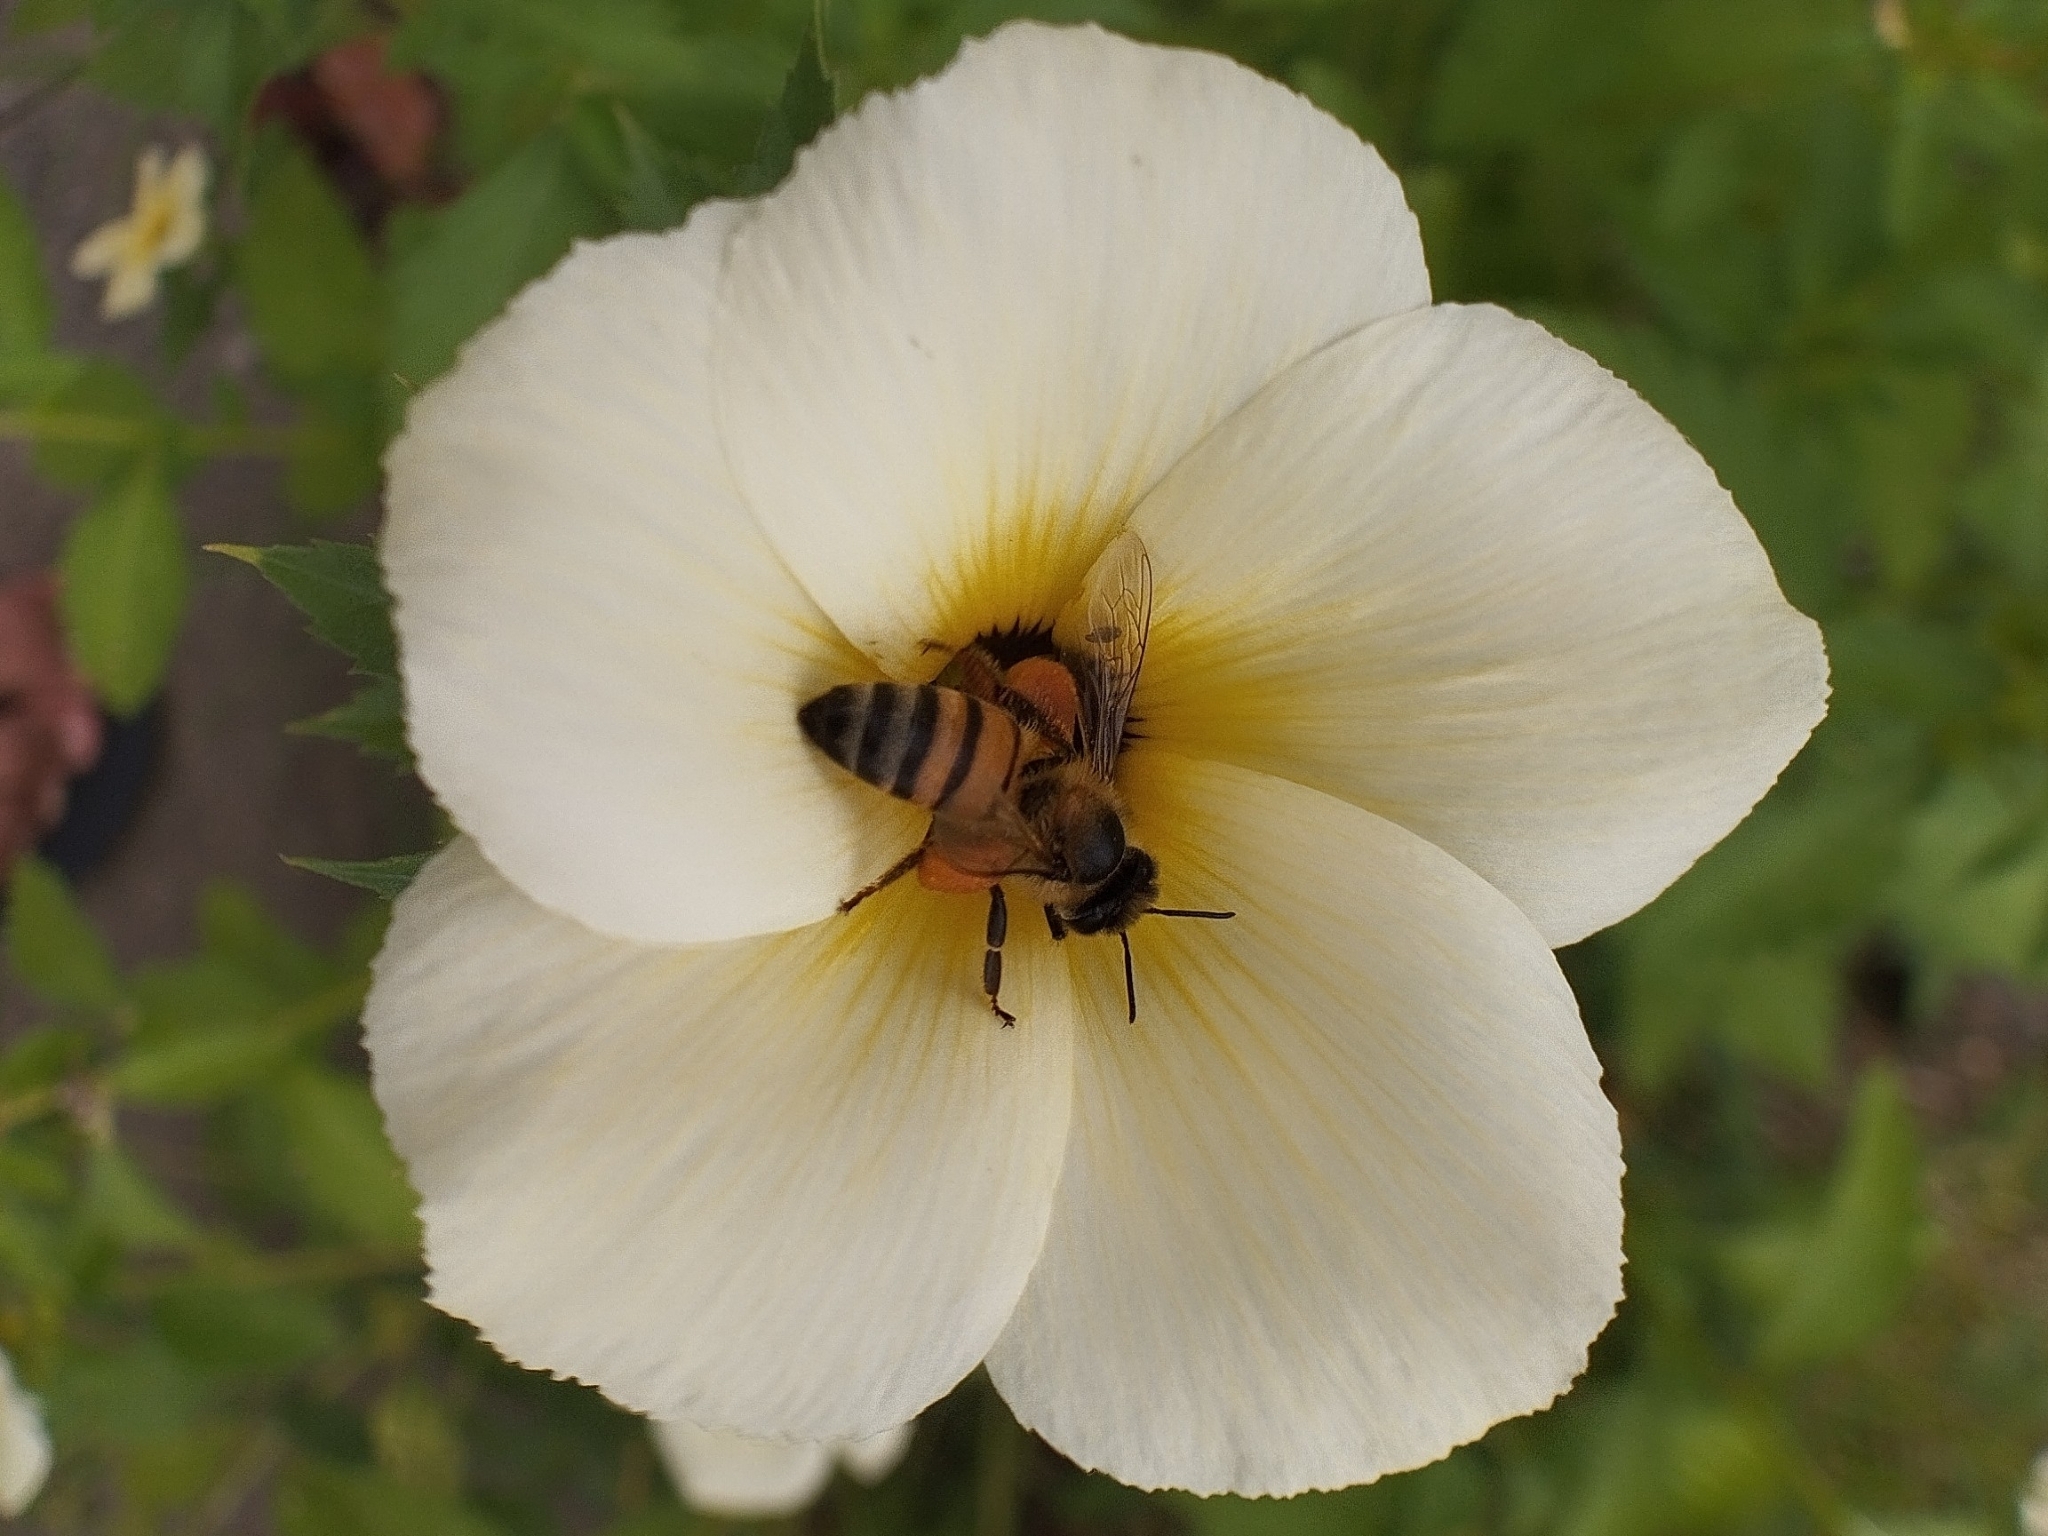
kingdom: Animalia
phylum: Arthropoda
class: Insecta
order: Hymenoptera
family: Apidae
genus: Apis
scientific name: Apis mellifera
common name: Honey bee
